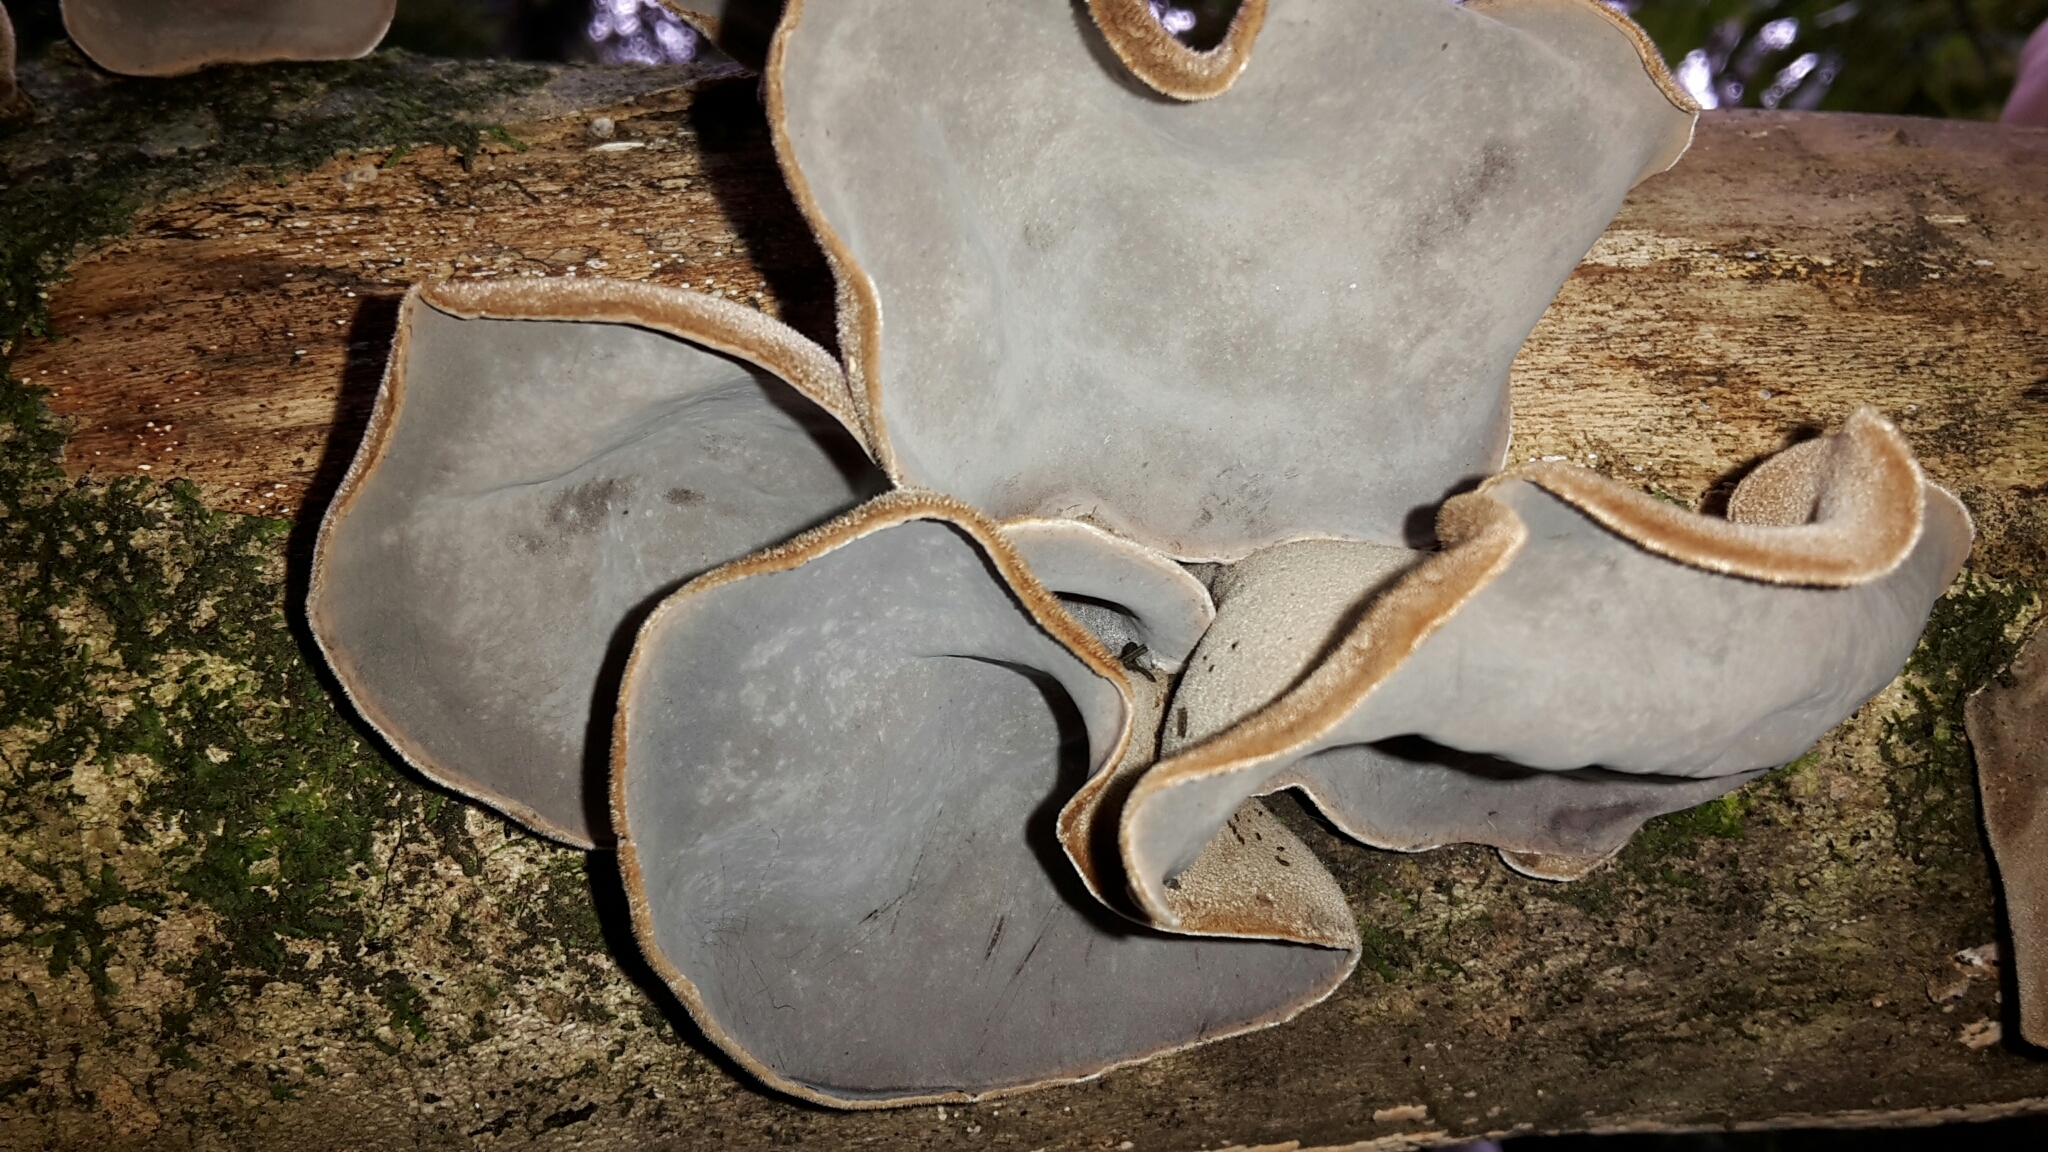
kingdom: Fungi
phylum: Basidiomycota
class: Agaricomycetes
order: Auriculariales
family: Auriculariaceae
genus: Auricularia
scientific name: Auricularia cornea
